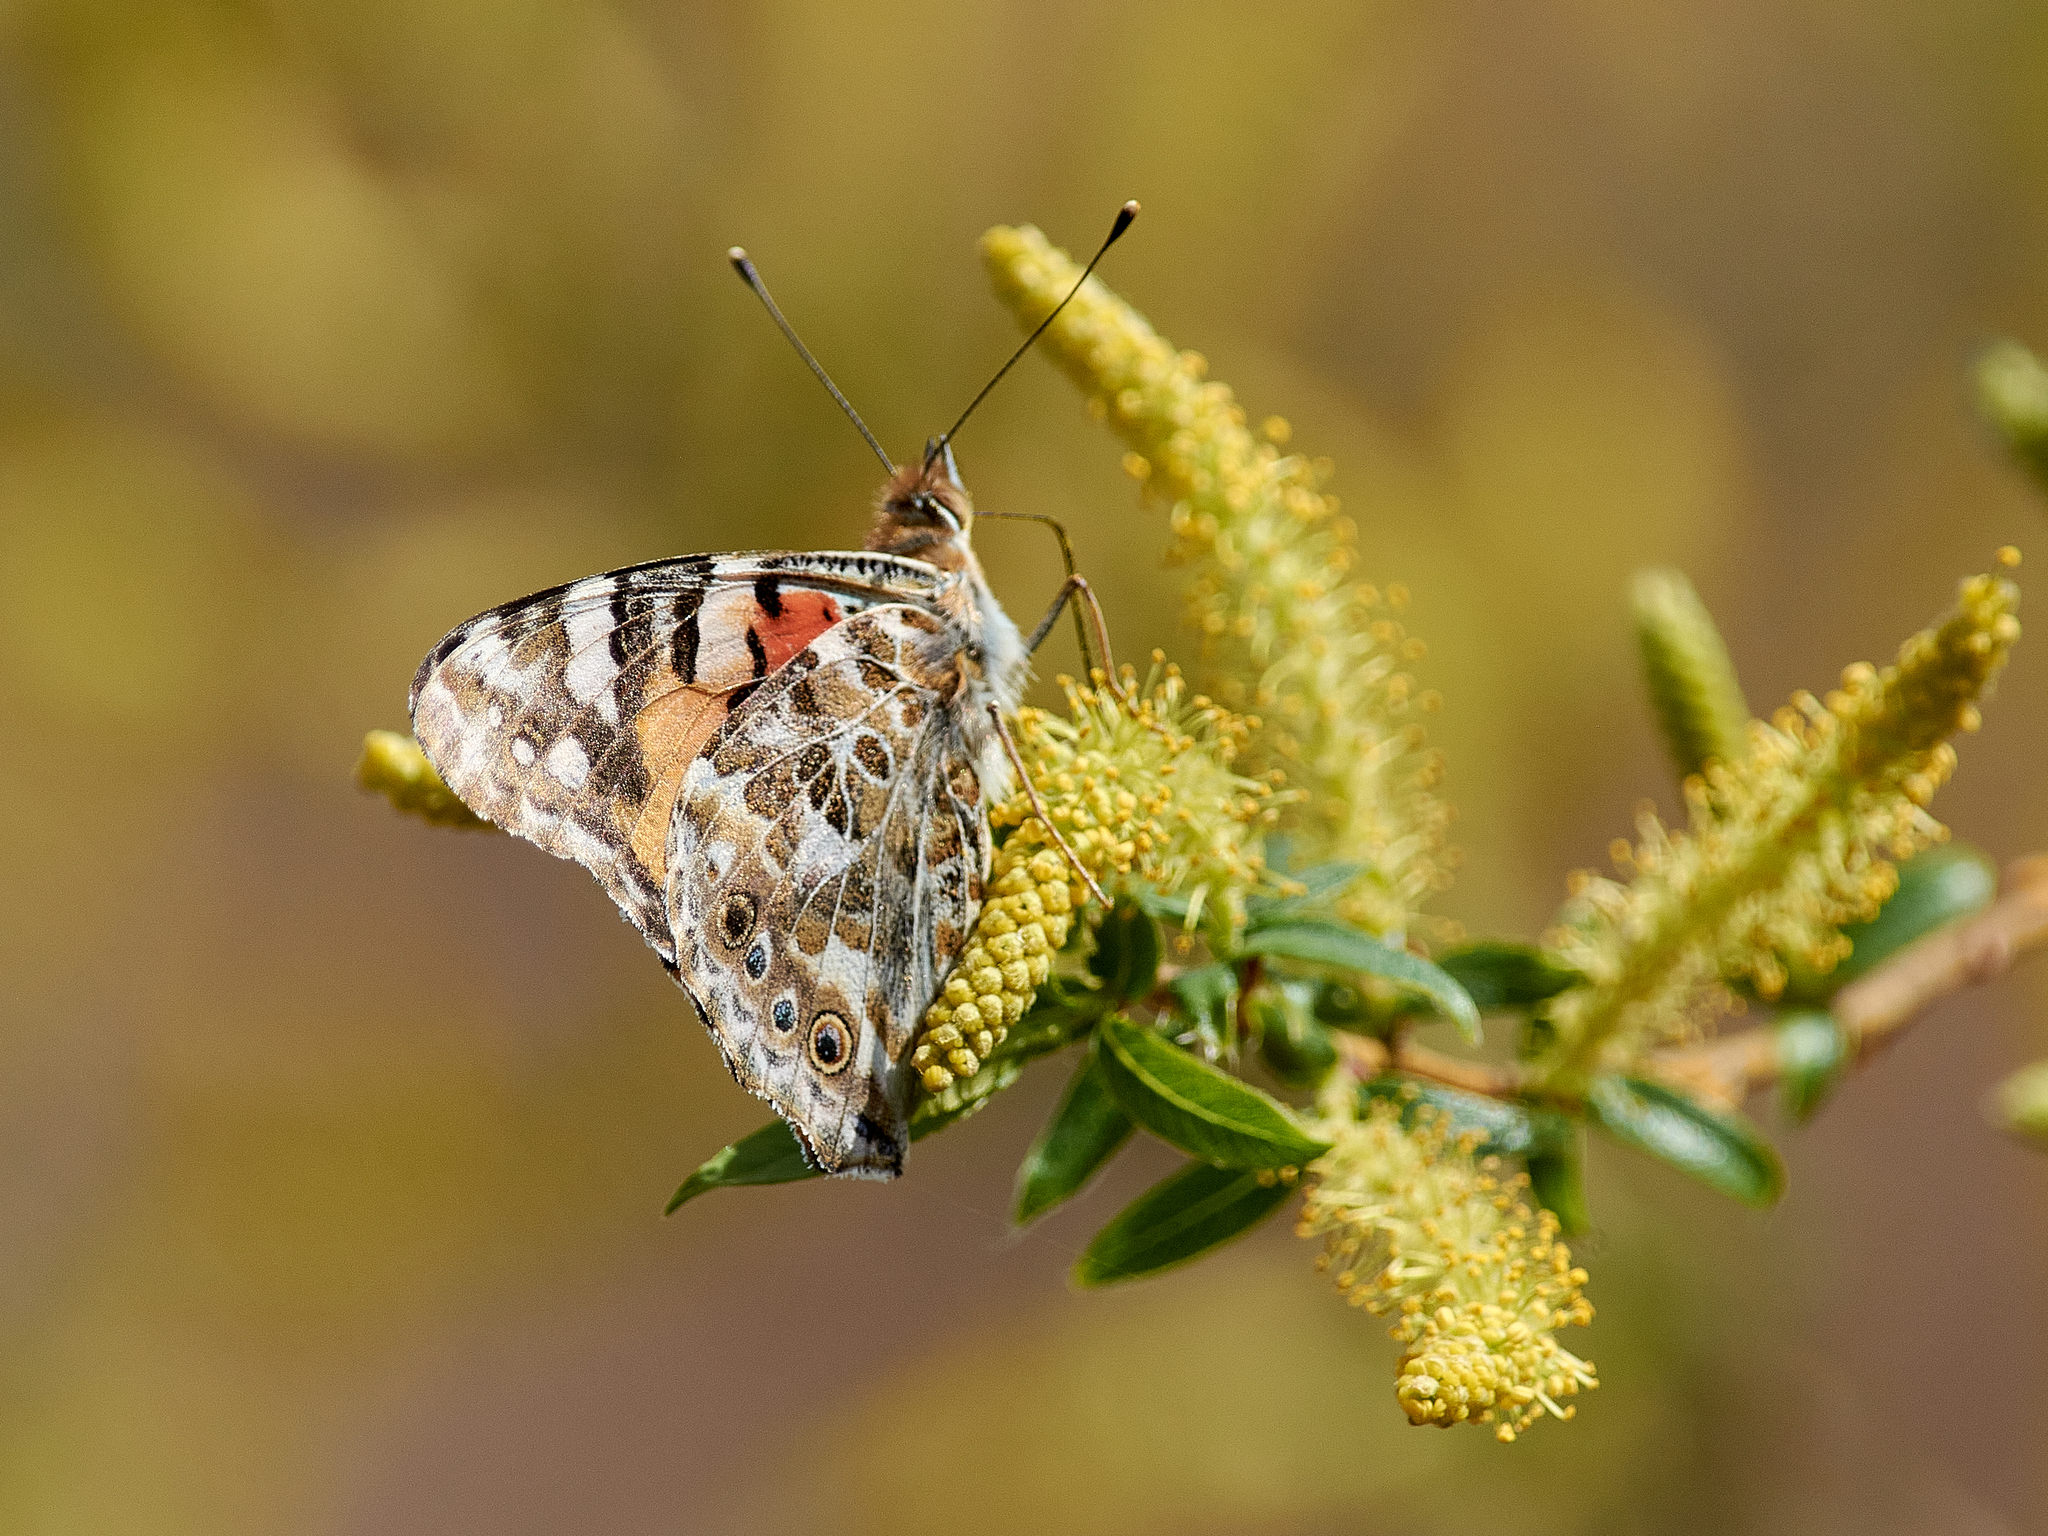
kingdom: Animalia
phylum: Arthropoda
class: Insecta
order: Lepidoptera
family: Nymphalidae
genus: Vanessa
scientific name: Vanessa cardui
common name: Painted lady
